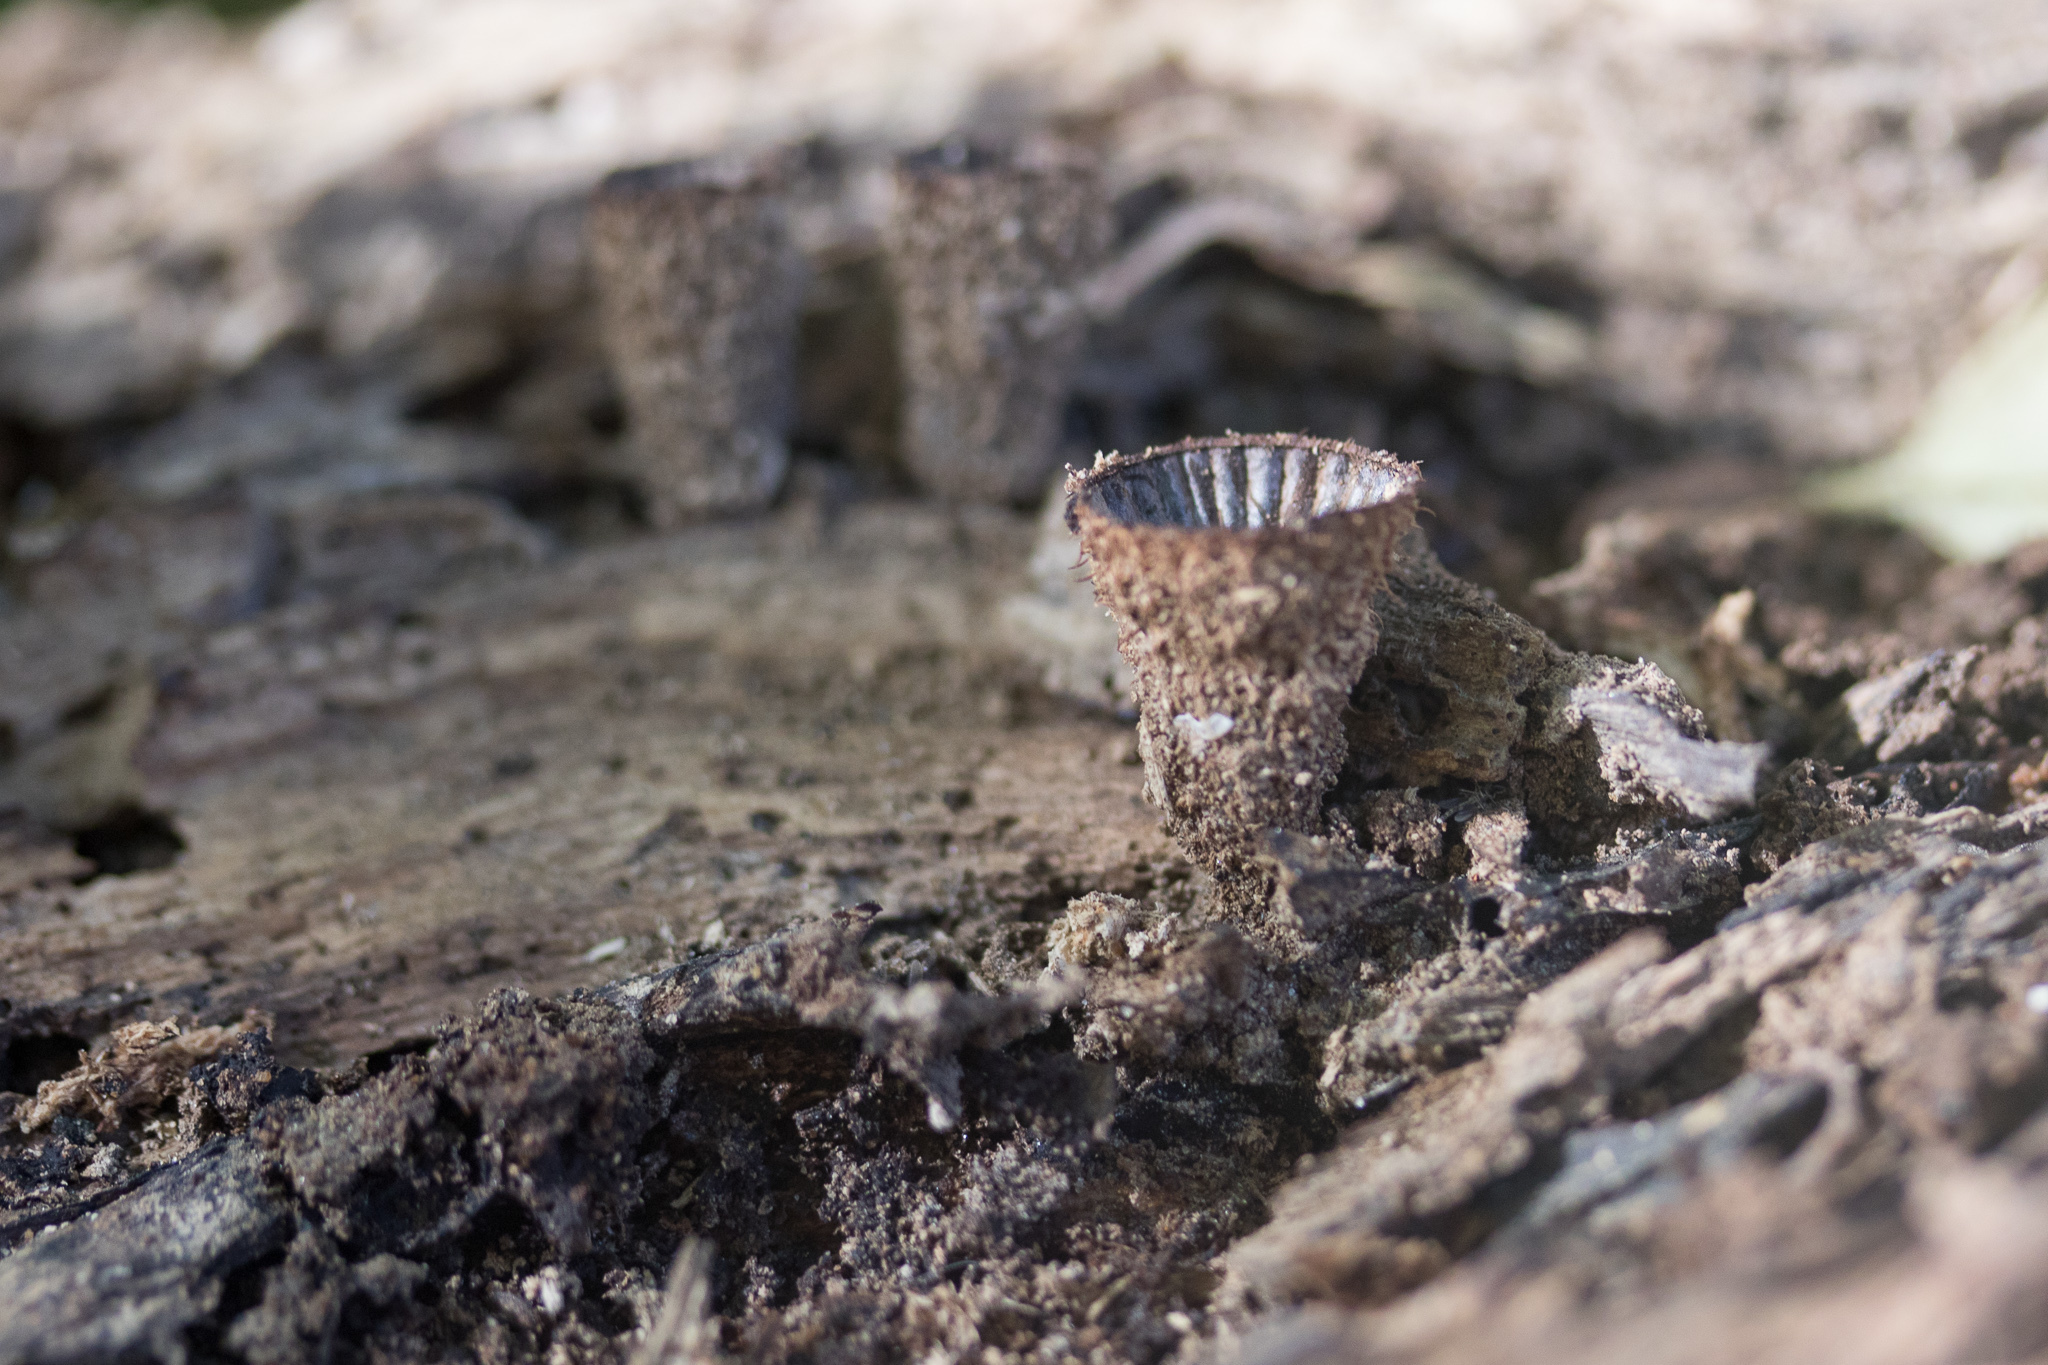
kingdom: Fungi
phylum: Basidiomycota
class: Agaricomycetes
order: Agaricales
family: Agaricaceae
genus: Cyathus
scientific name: Cyathus striatus
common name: Fluted bird's nest
